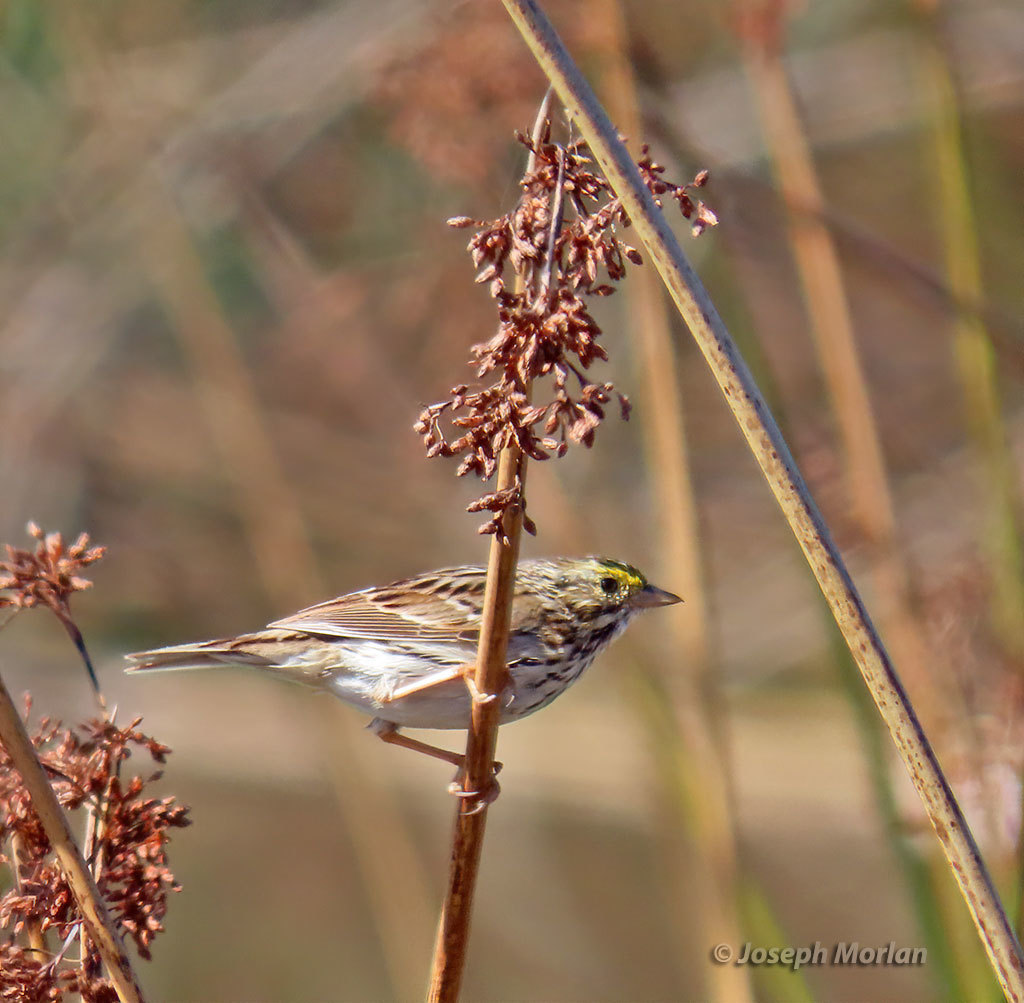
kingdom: Animalia
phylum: Chordata
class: Aves
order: Passeriformes
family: Passerellidae
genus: Passerculus
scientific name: Passerculus sandwichensis
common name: Savannah sparrow
